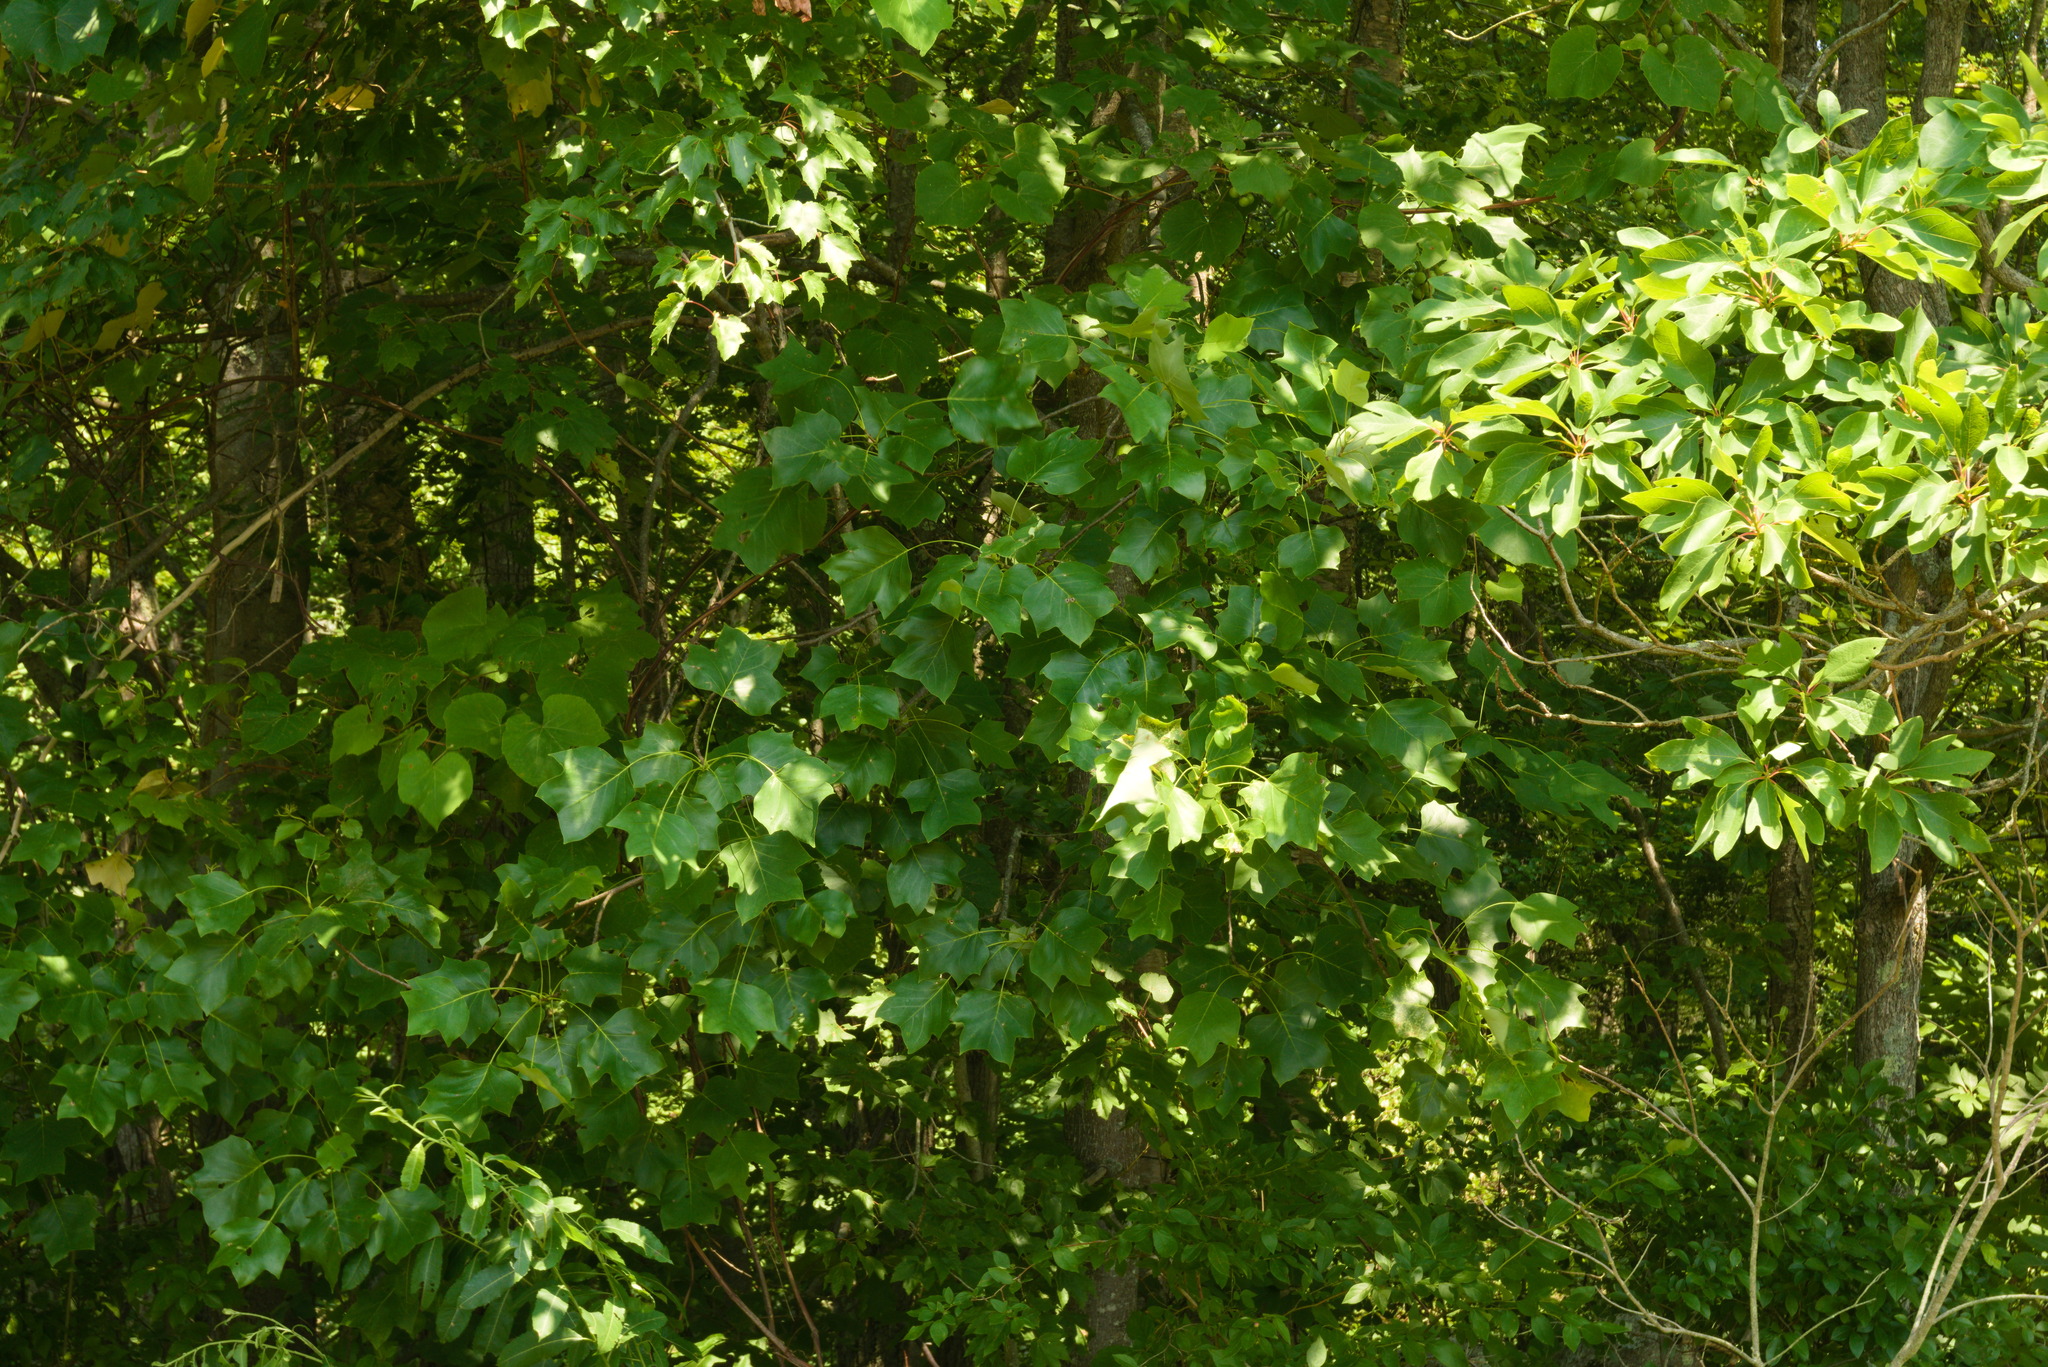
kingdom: Plantae
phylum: Tracheophyta
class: Magnoliopsida
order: Magnoliales
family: Magnoliaceae
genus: Liriodendron
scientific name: Liriodendron tulipifera
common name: Tulip tree
